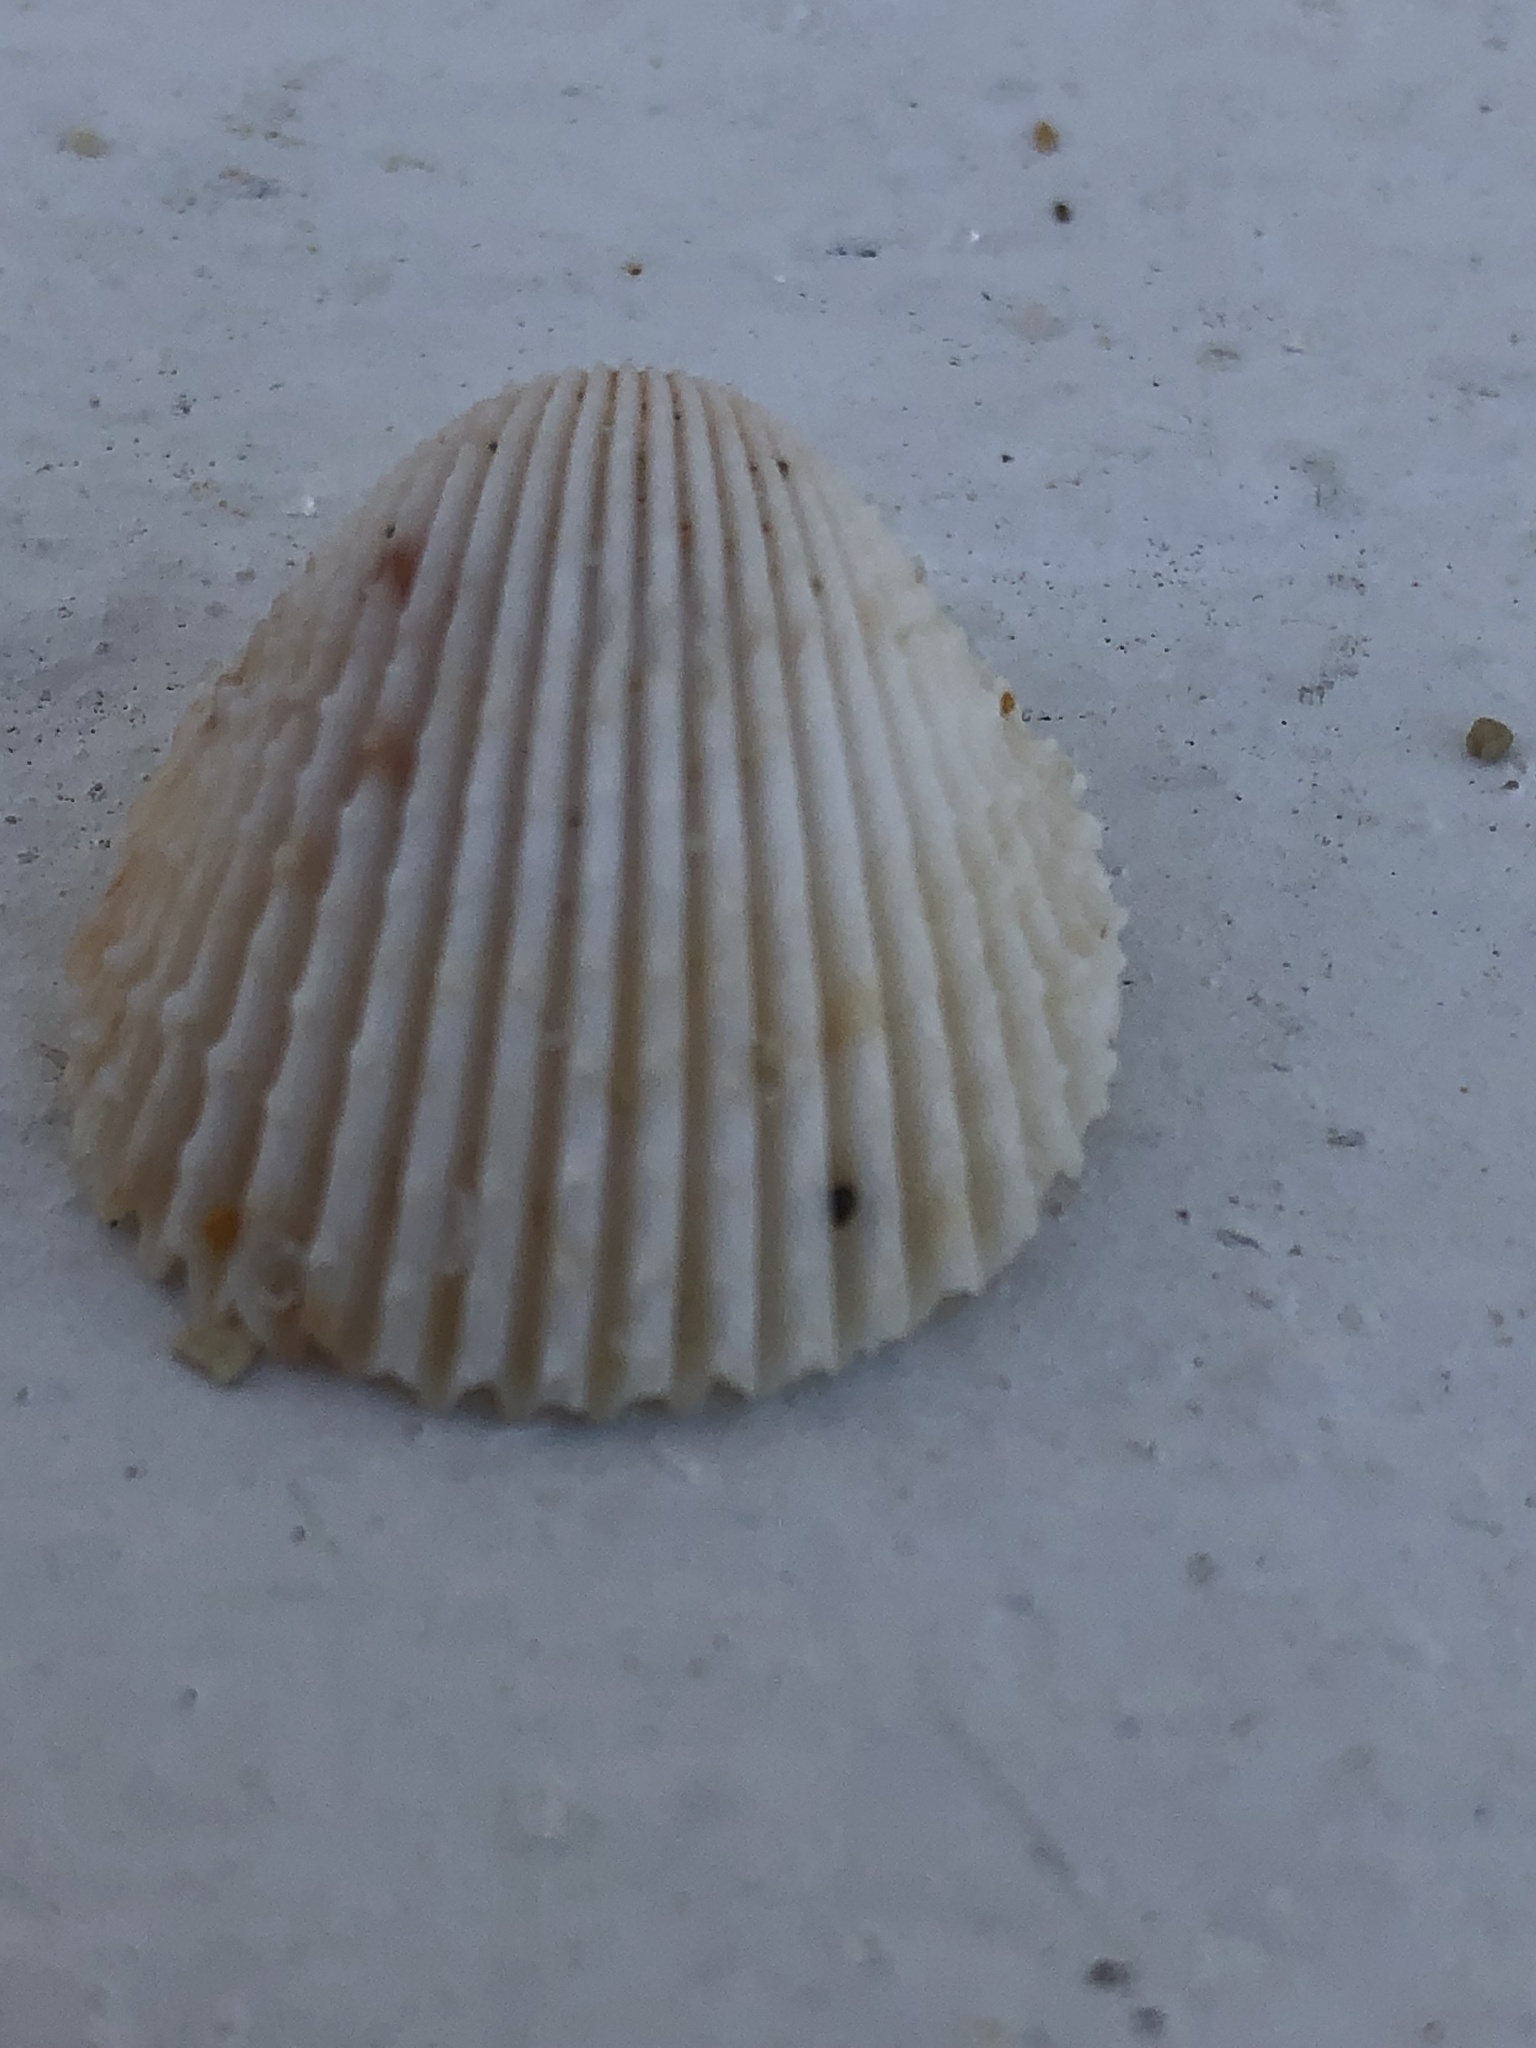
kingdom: Animalia
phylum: Mollusca
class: Bivalvia
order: Cardiida
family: Cardiidae
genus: Trachycardium
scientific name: Trachycardium egmontianum
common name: Florida pricklycockle
